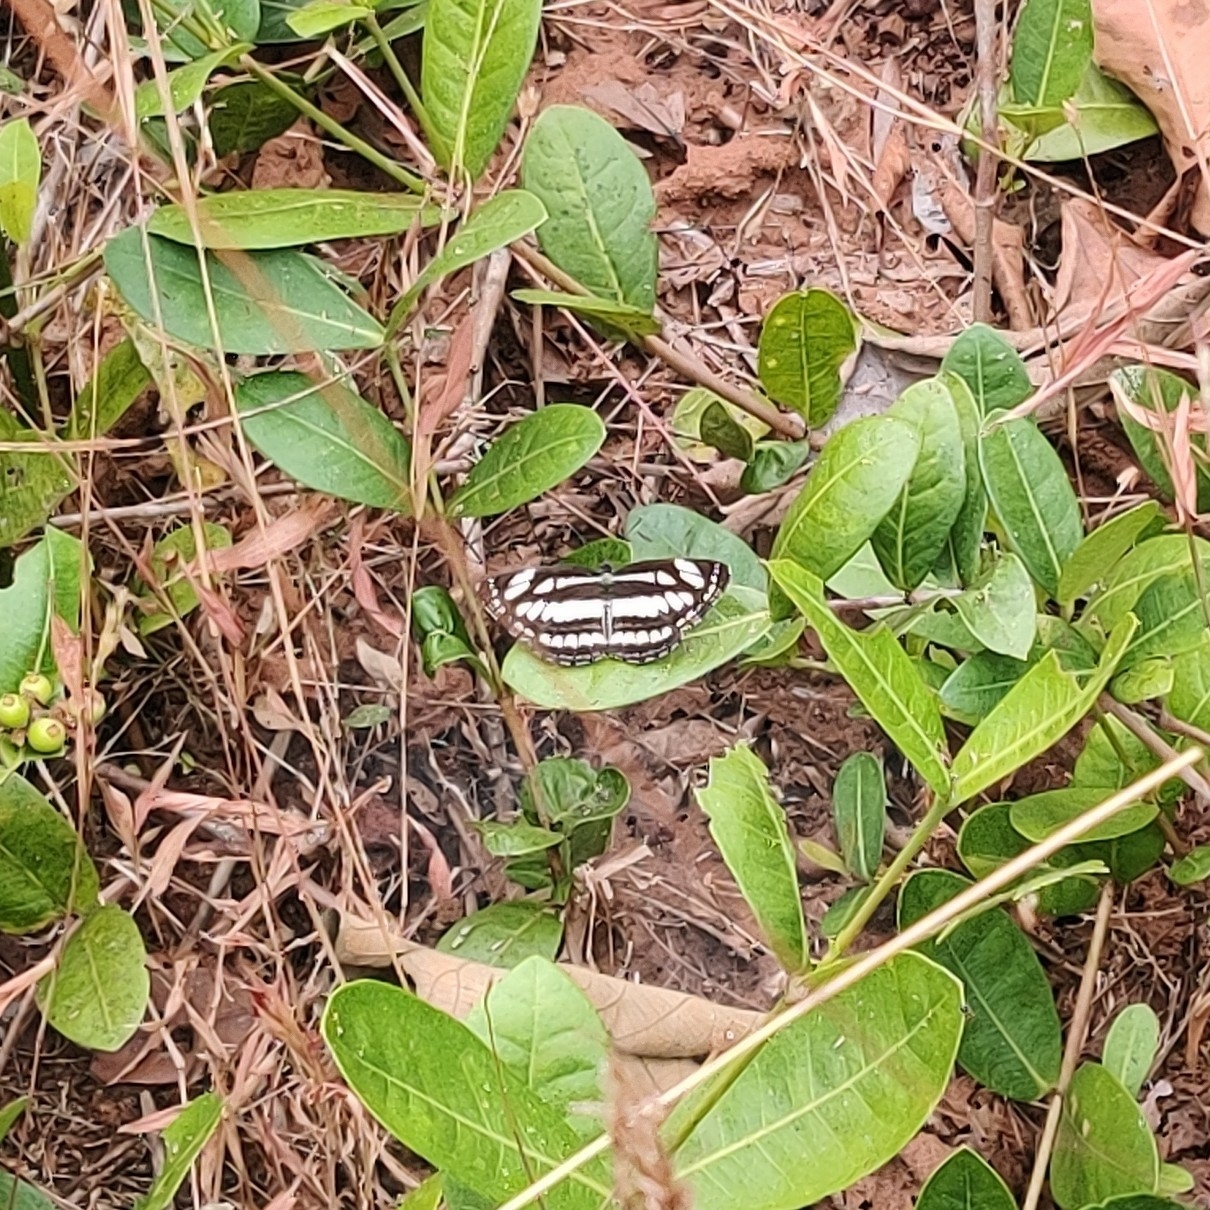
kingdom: Animalia
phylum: Arthropoda
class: Insecta
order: Lepidoptera
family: Nymphalidae
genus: Neptis
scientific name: Neptis hylas
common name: Common sailer
